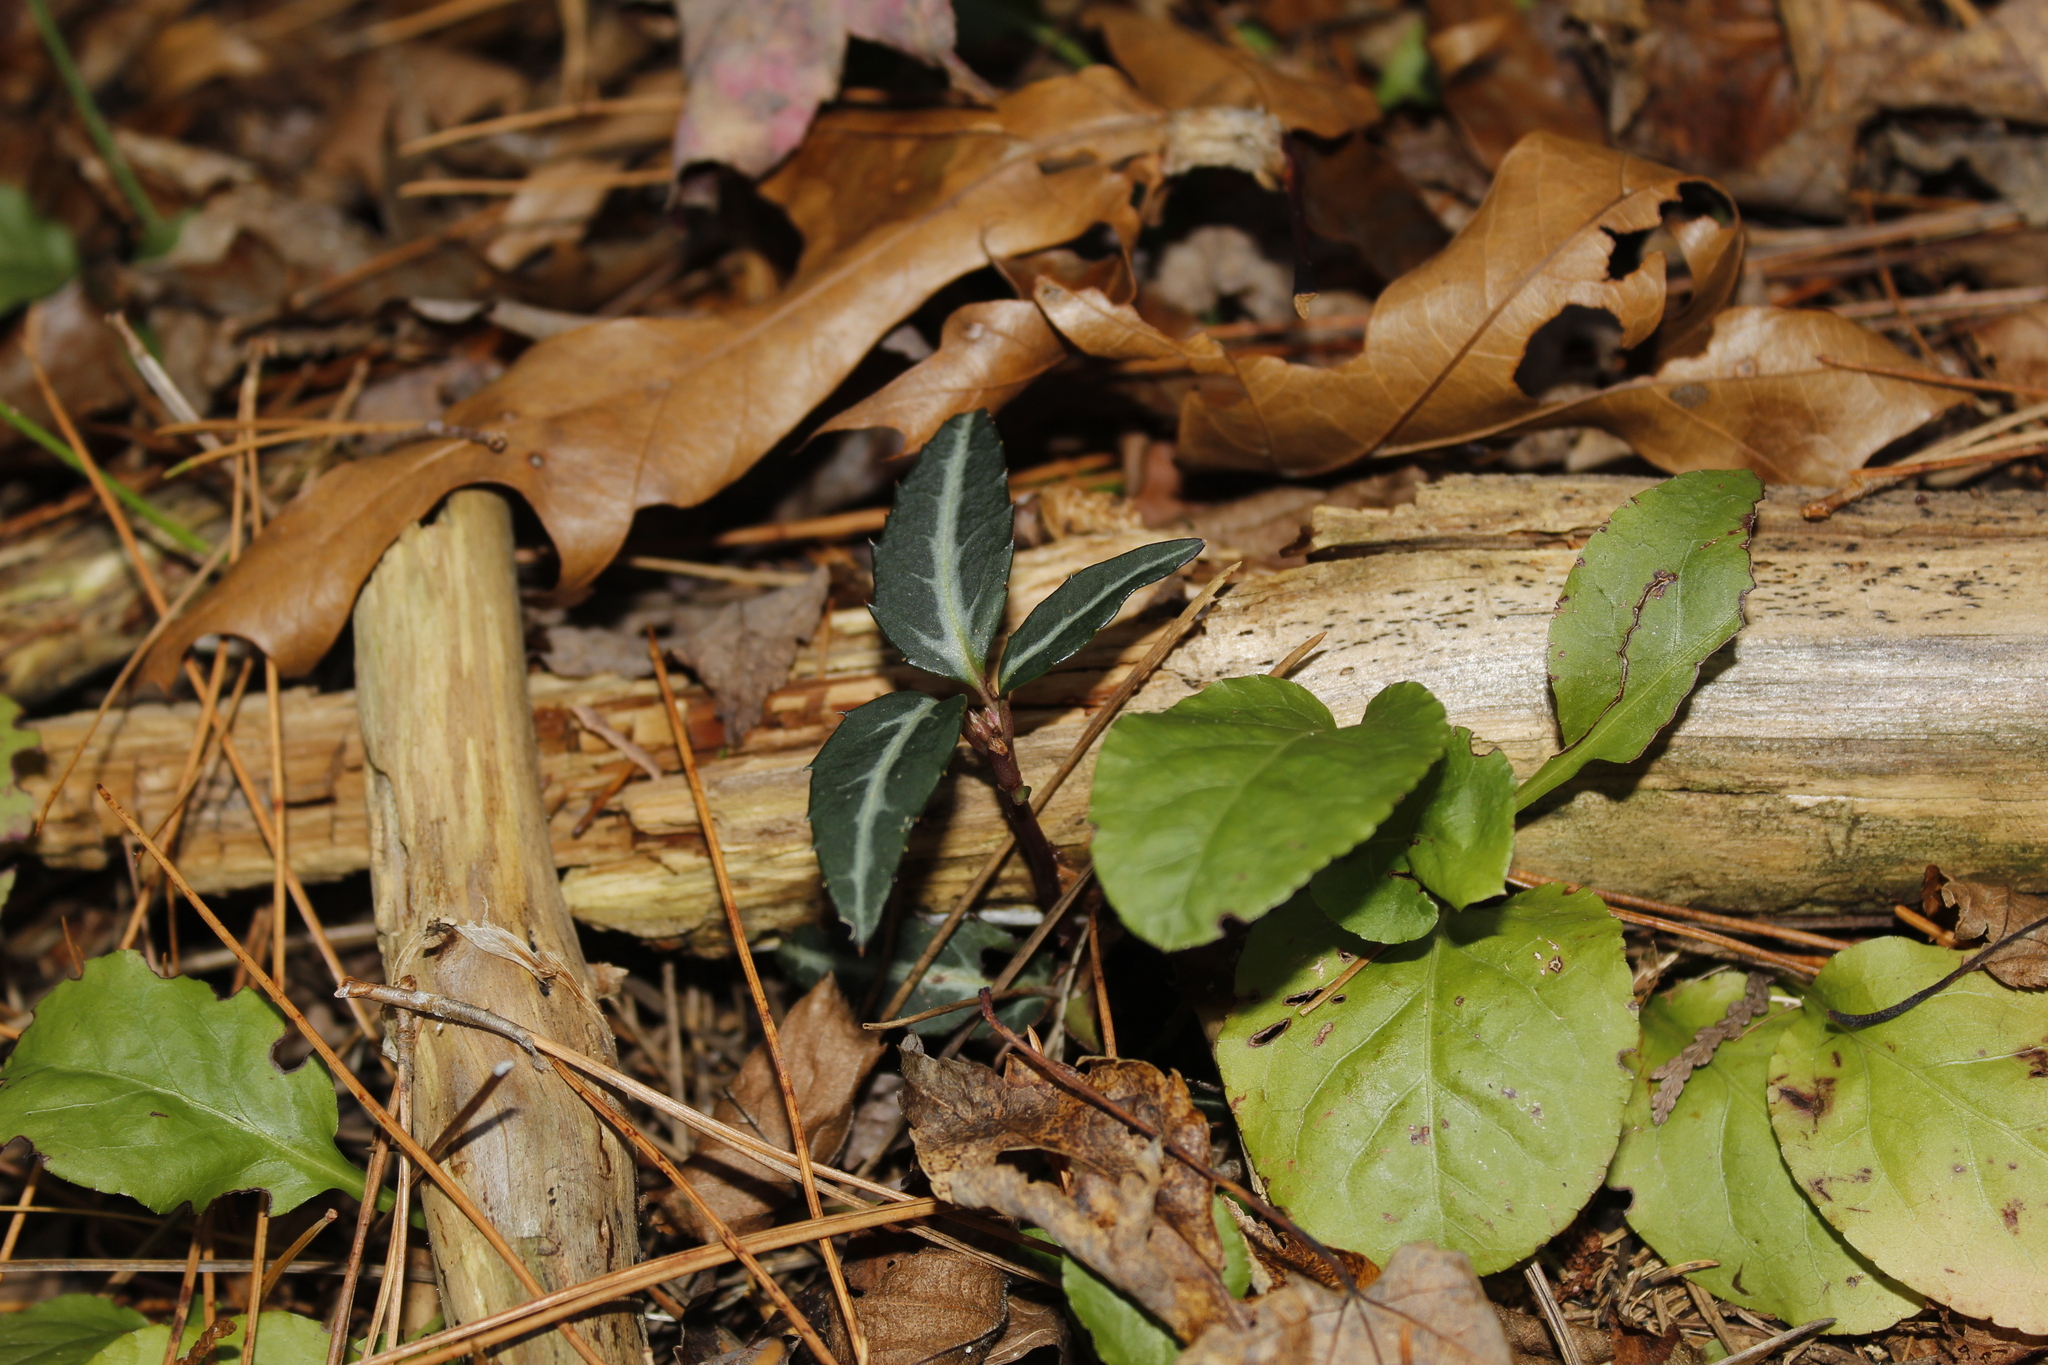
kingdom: Plantae
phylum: Tracheophyta
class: Magnoliopsida
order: Ericales
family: Ericaceae
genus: Chimaphila
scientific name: Chimaphila maculata
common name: Spotted pipsissewa
